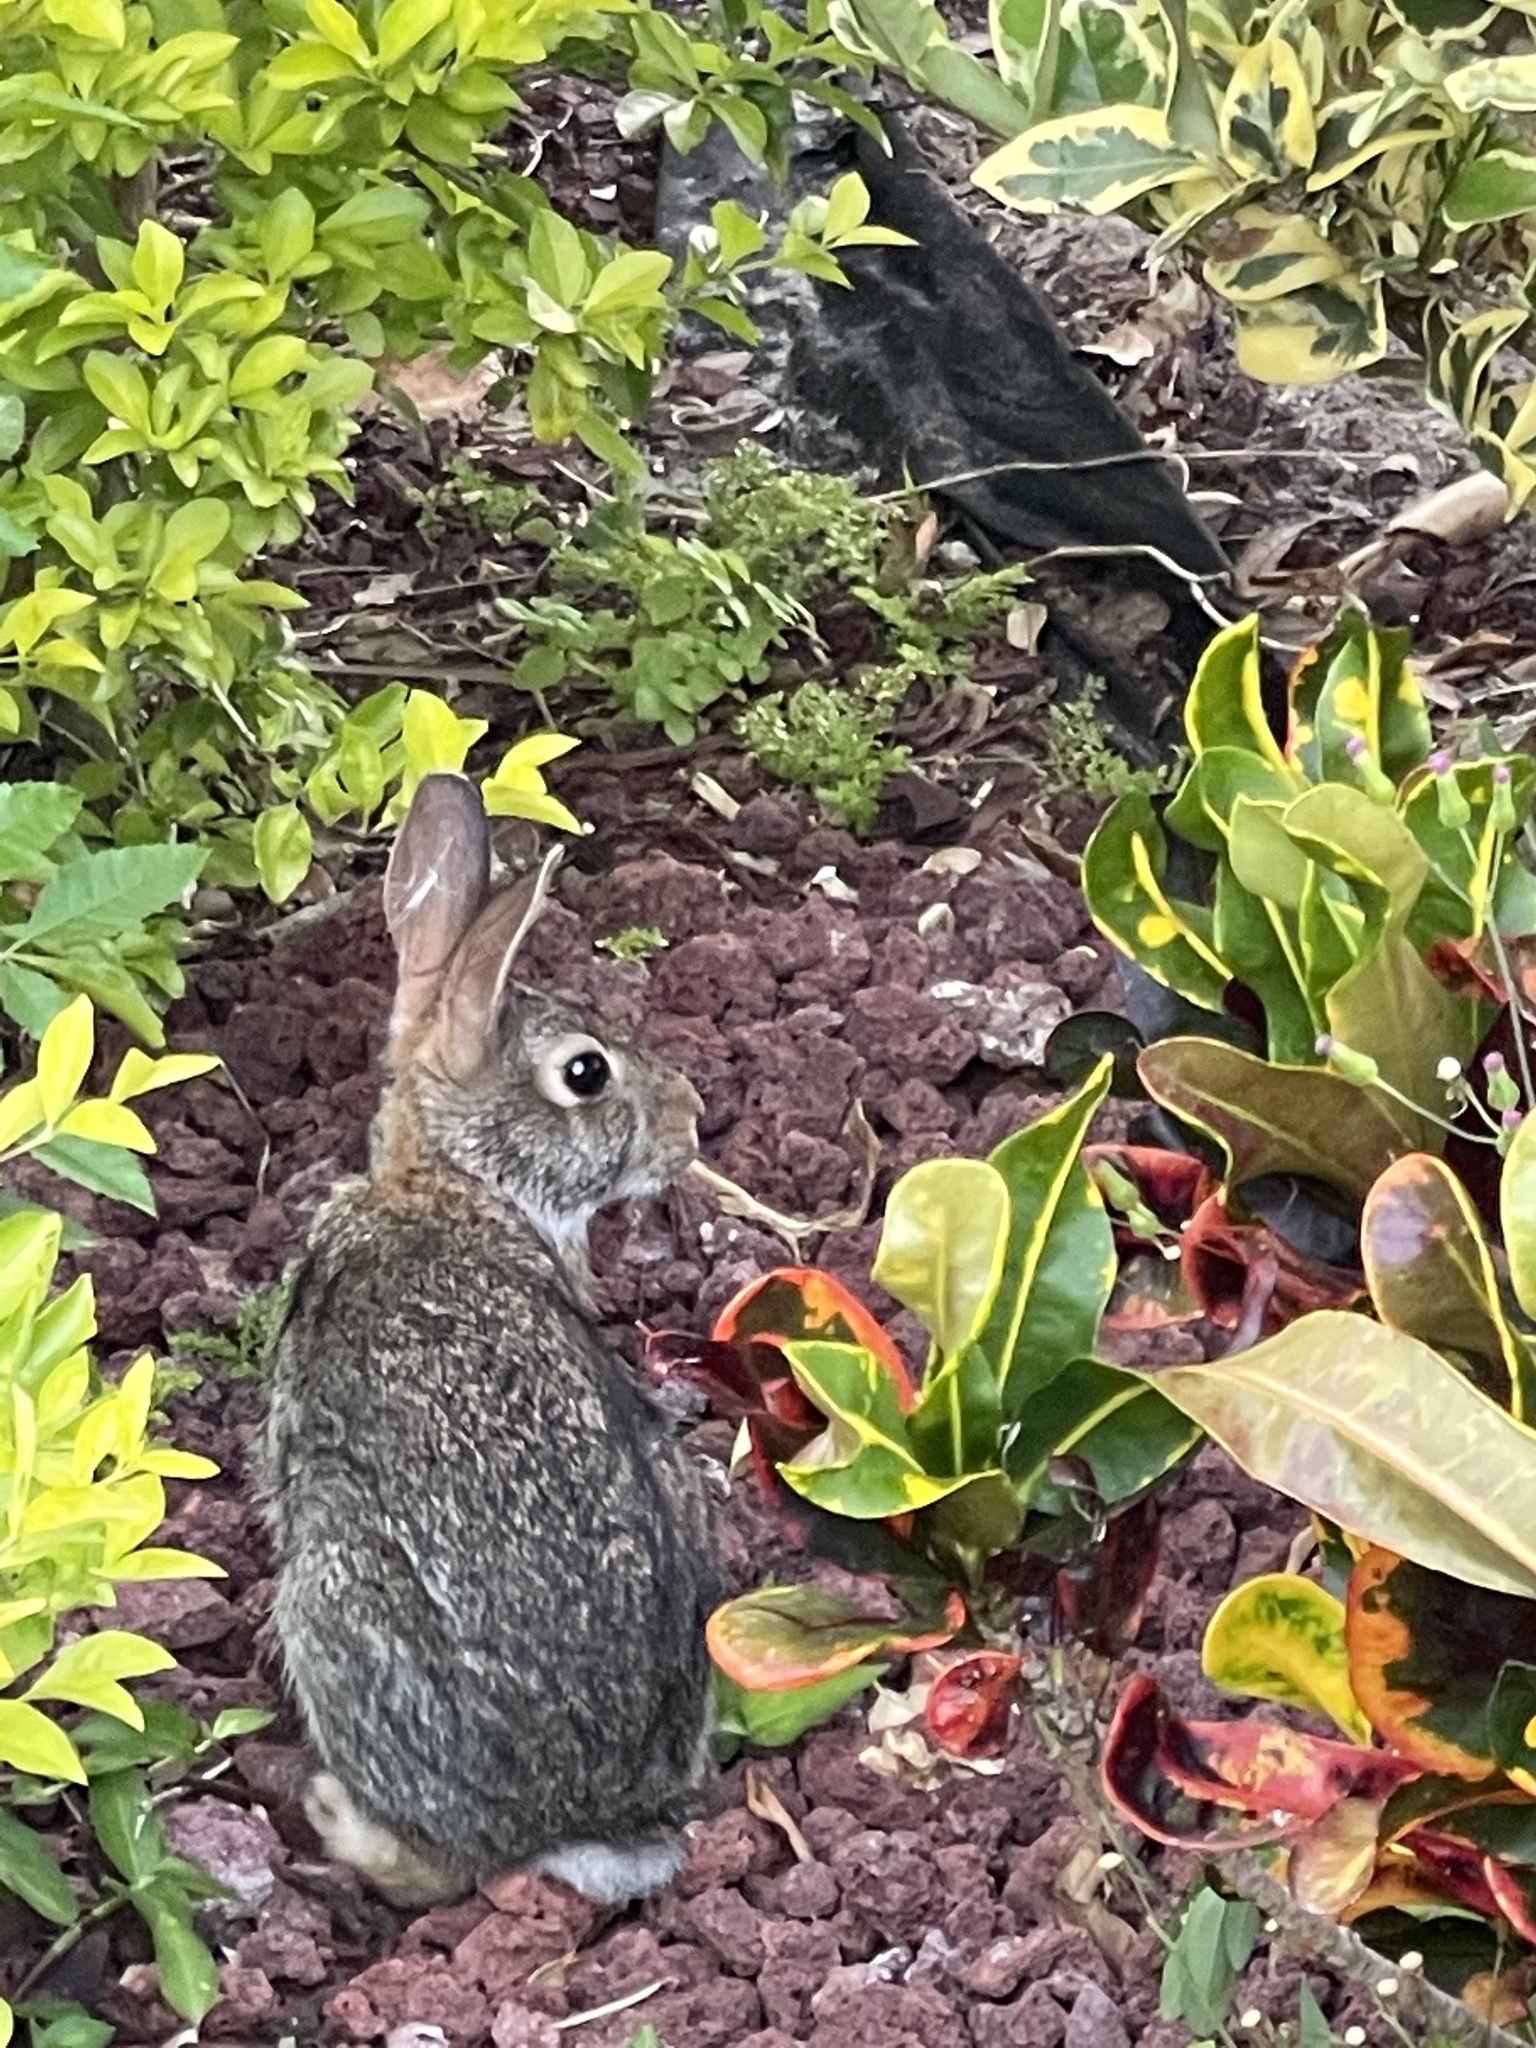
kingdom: Animalia
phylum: Chordata
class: Mammalia
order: Lagomorpha
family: Leporidae
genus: Sylvilagus
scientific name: Sylvilagus floridanus
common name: Eastern cottontail
